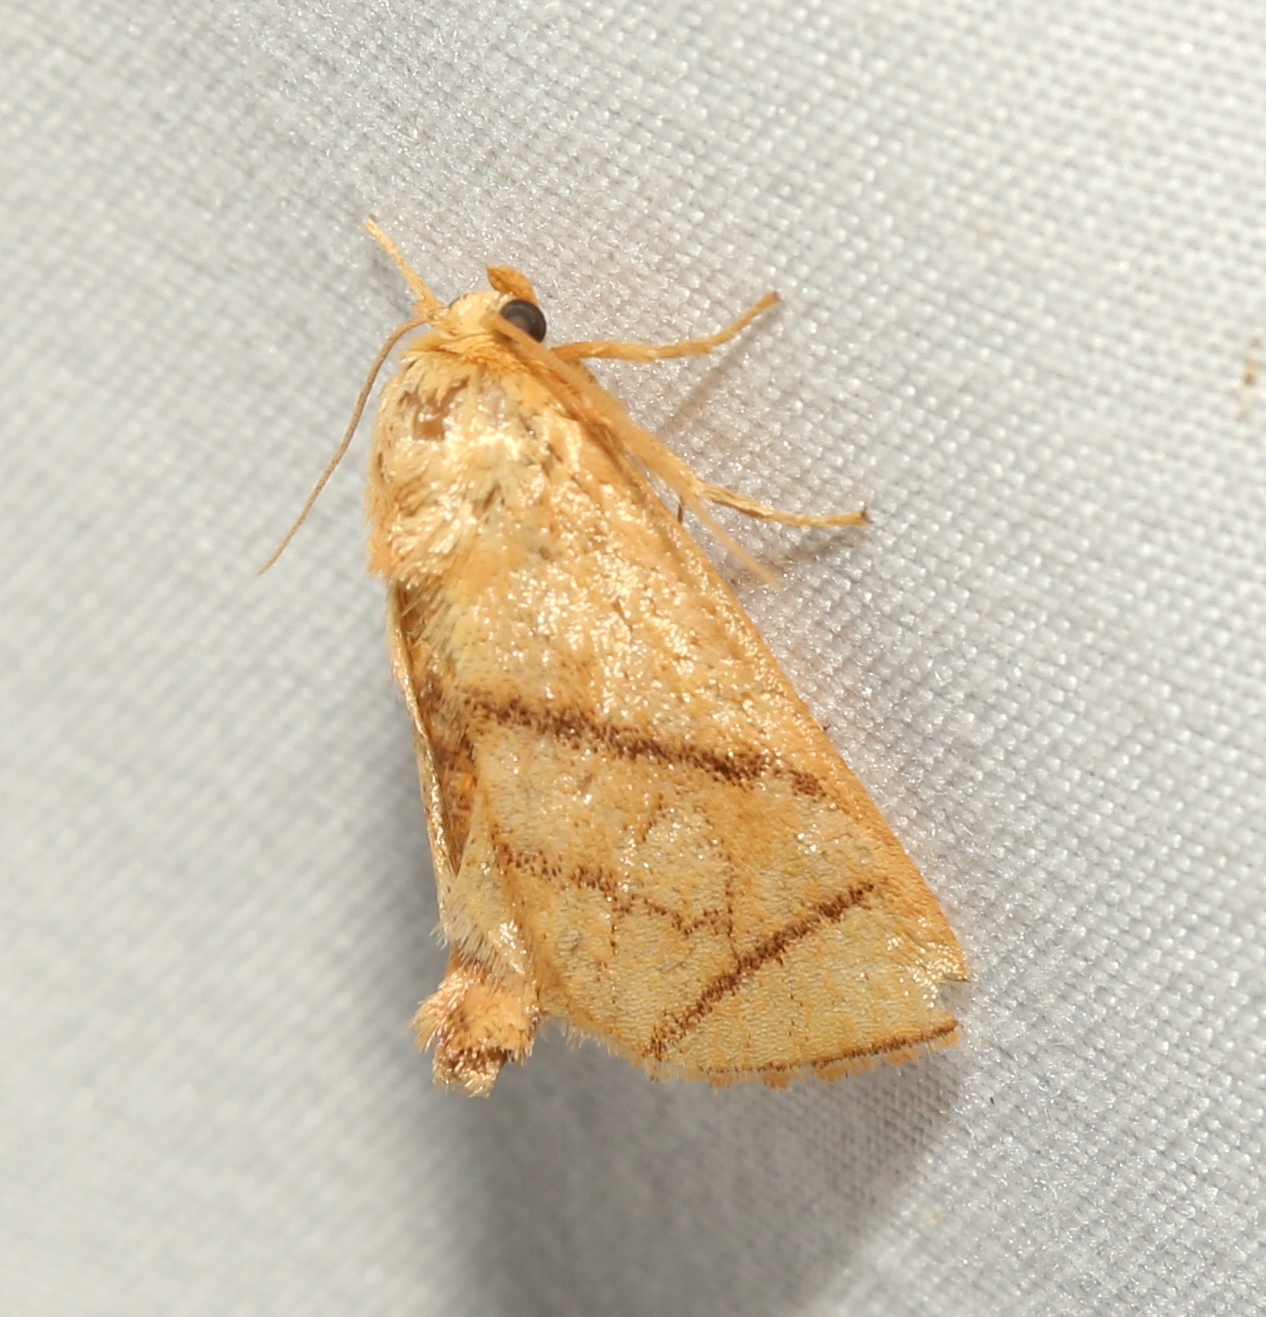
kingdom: Animalia
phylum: Arthropoda
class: Insecta
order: Lepidoptera
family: Limacodidae
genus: Apoda
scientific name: Apoda y-inversa
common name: Yellow-collared slug moth
